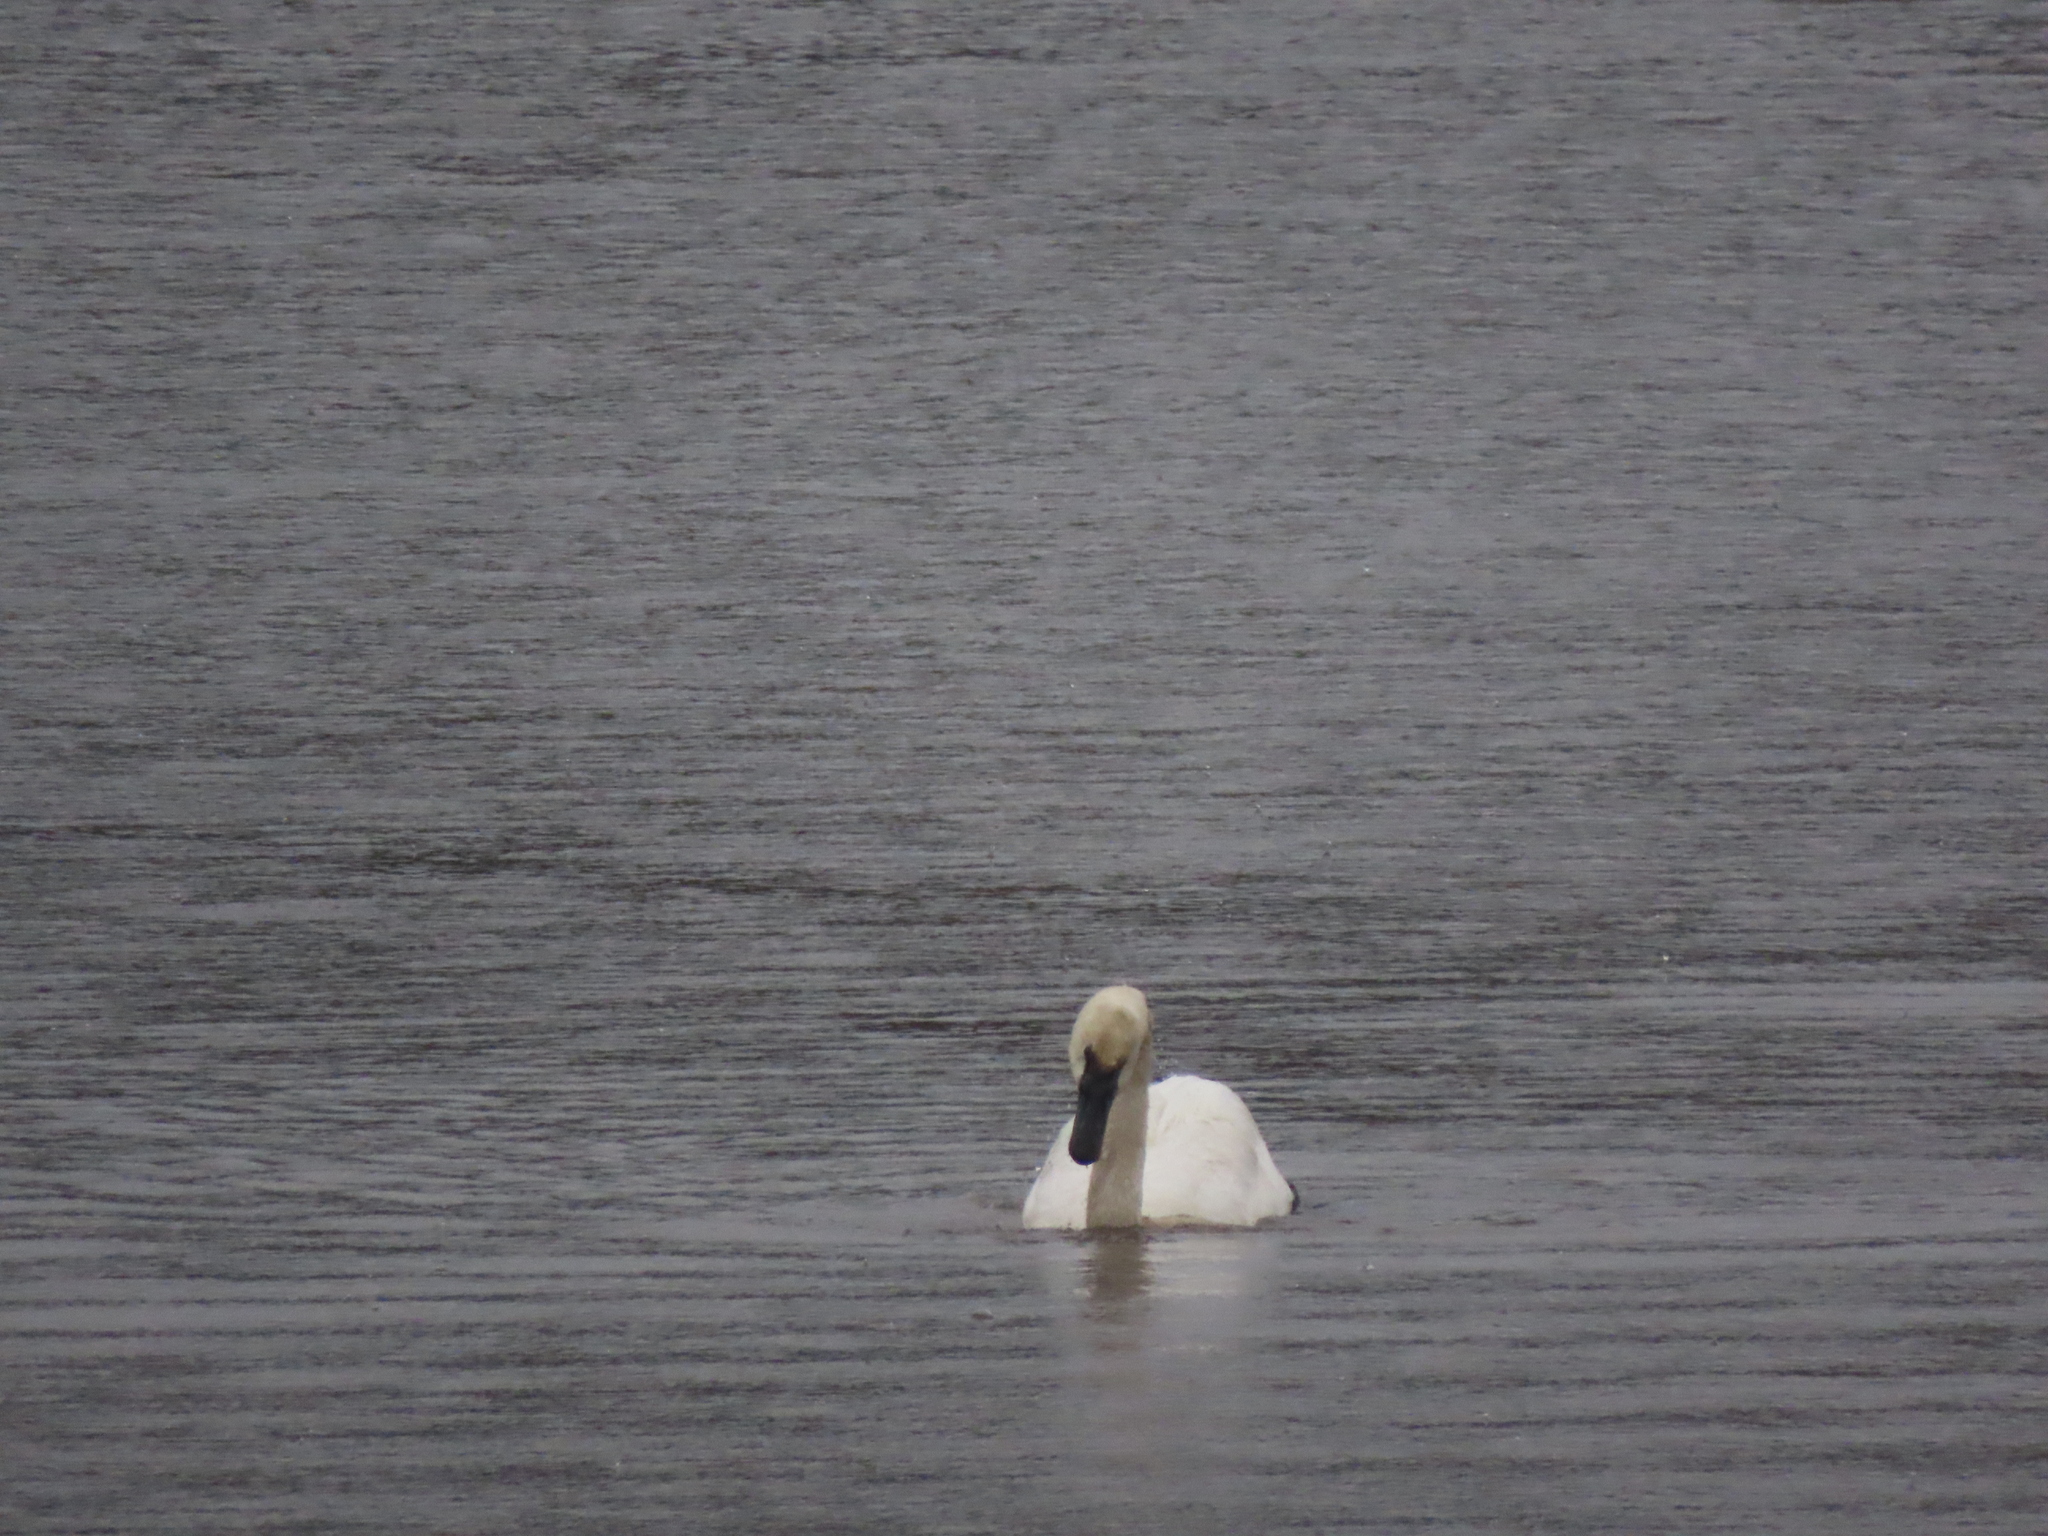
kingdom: Animalia
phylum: Chordata
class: Aves
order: Anseriformes
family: Anatidae
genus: Cygnus
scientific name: Cygnus buccinator
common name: Trumpeter swan
